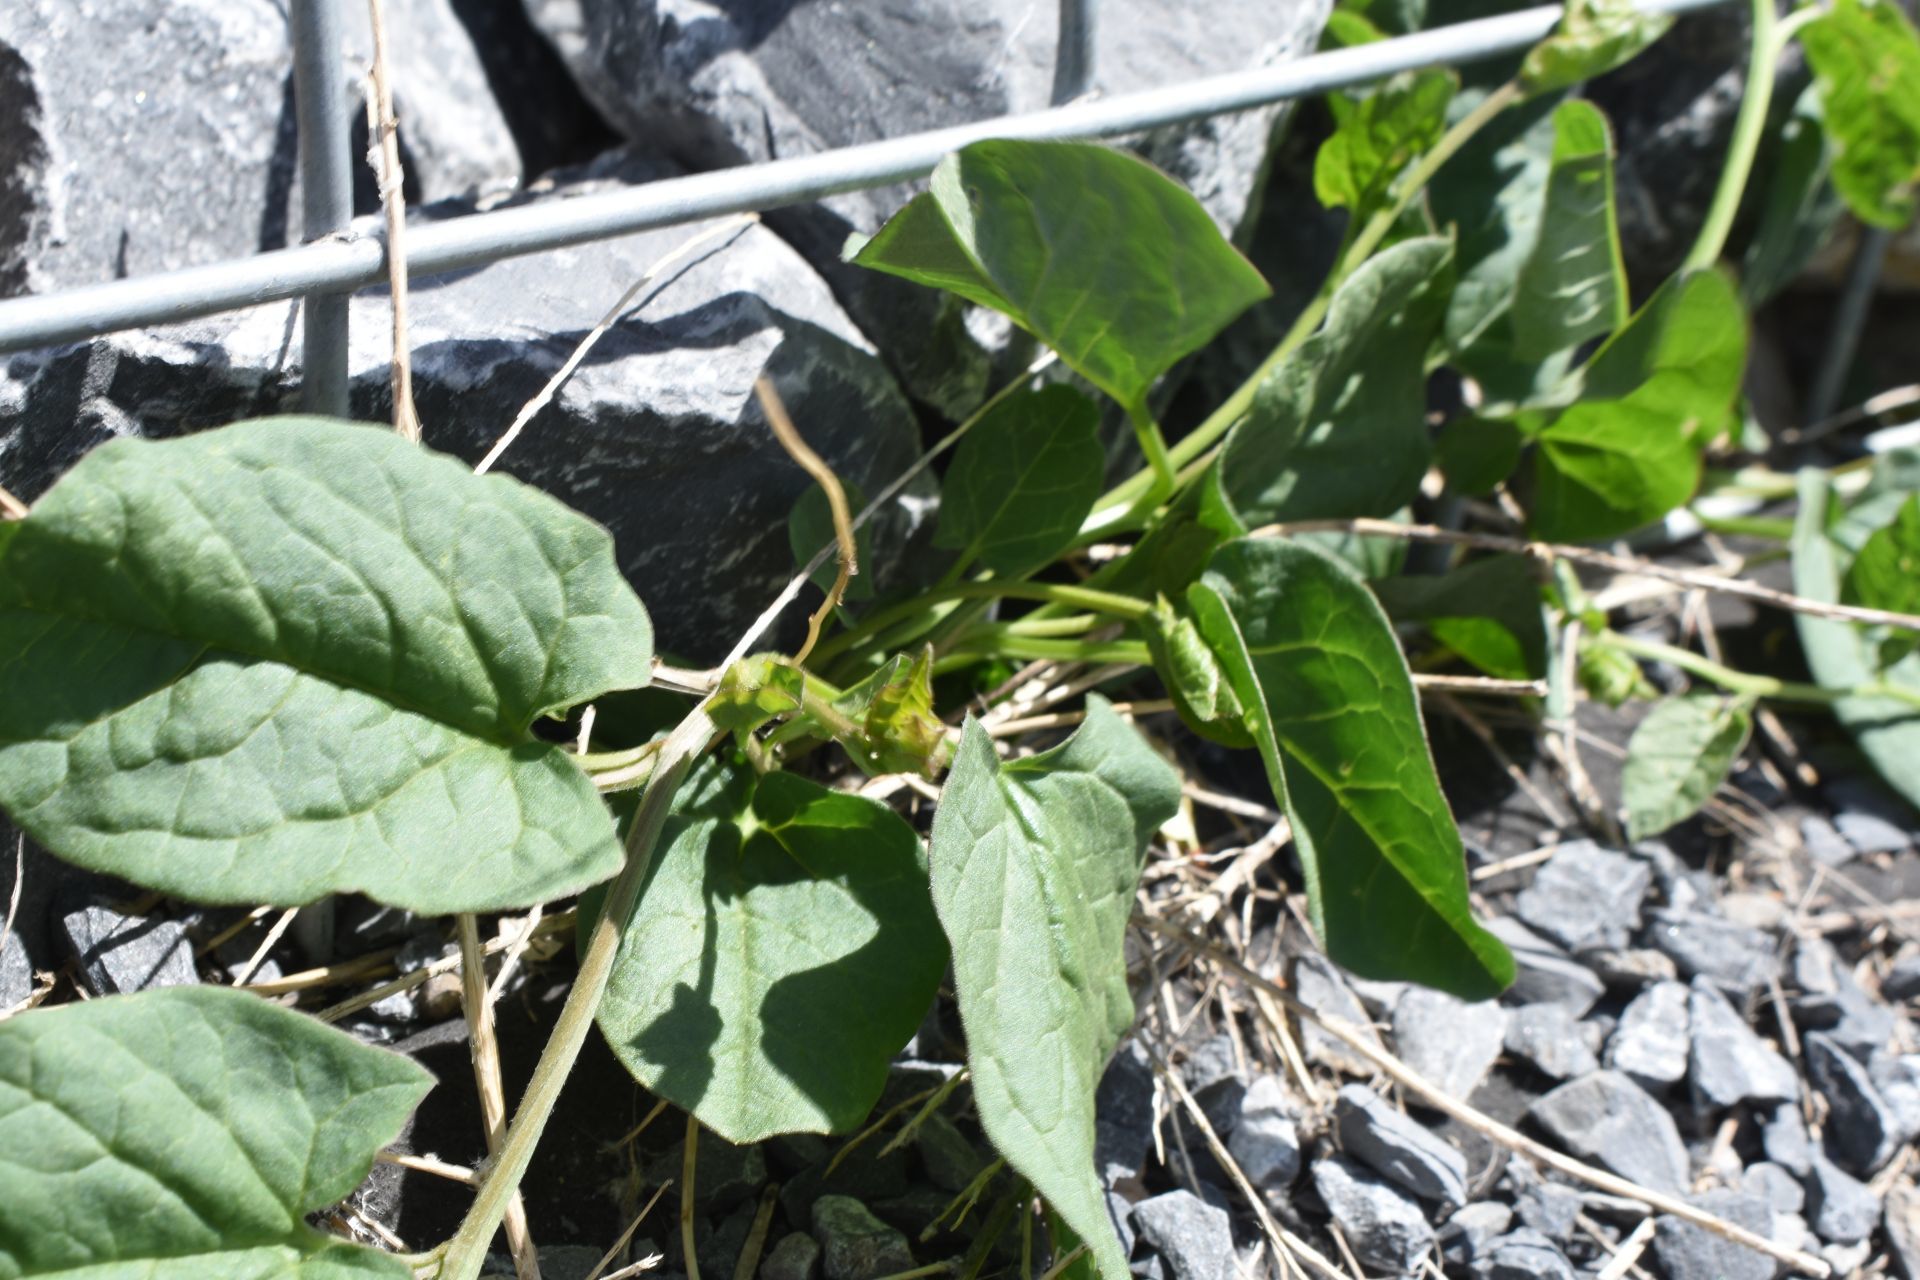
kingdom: Plantae
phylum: Tracheophyta
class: Magnoliopsida
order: Solanales
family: Convolvulaceae
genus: Convolvulus
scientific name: Convolvulus arvensis
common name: Field bindweed
